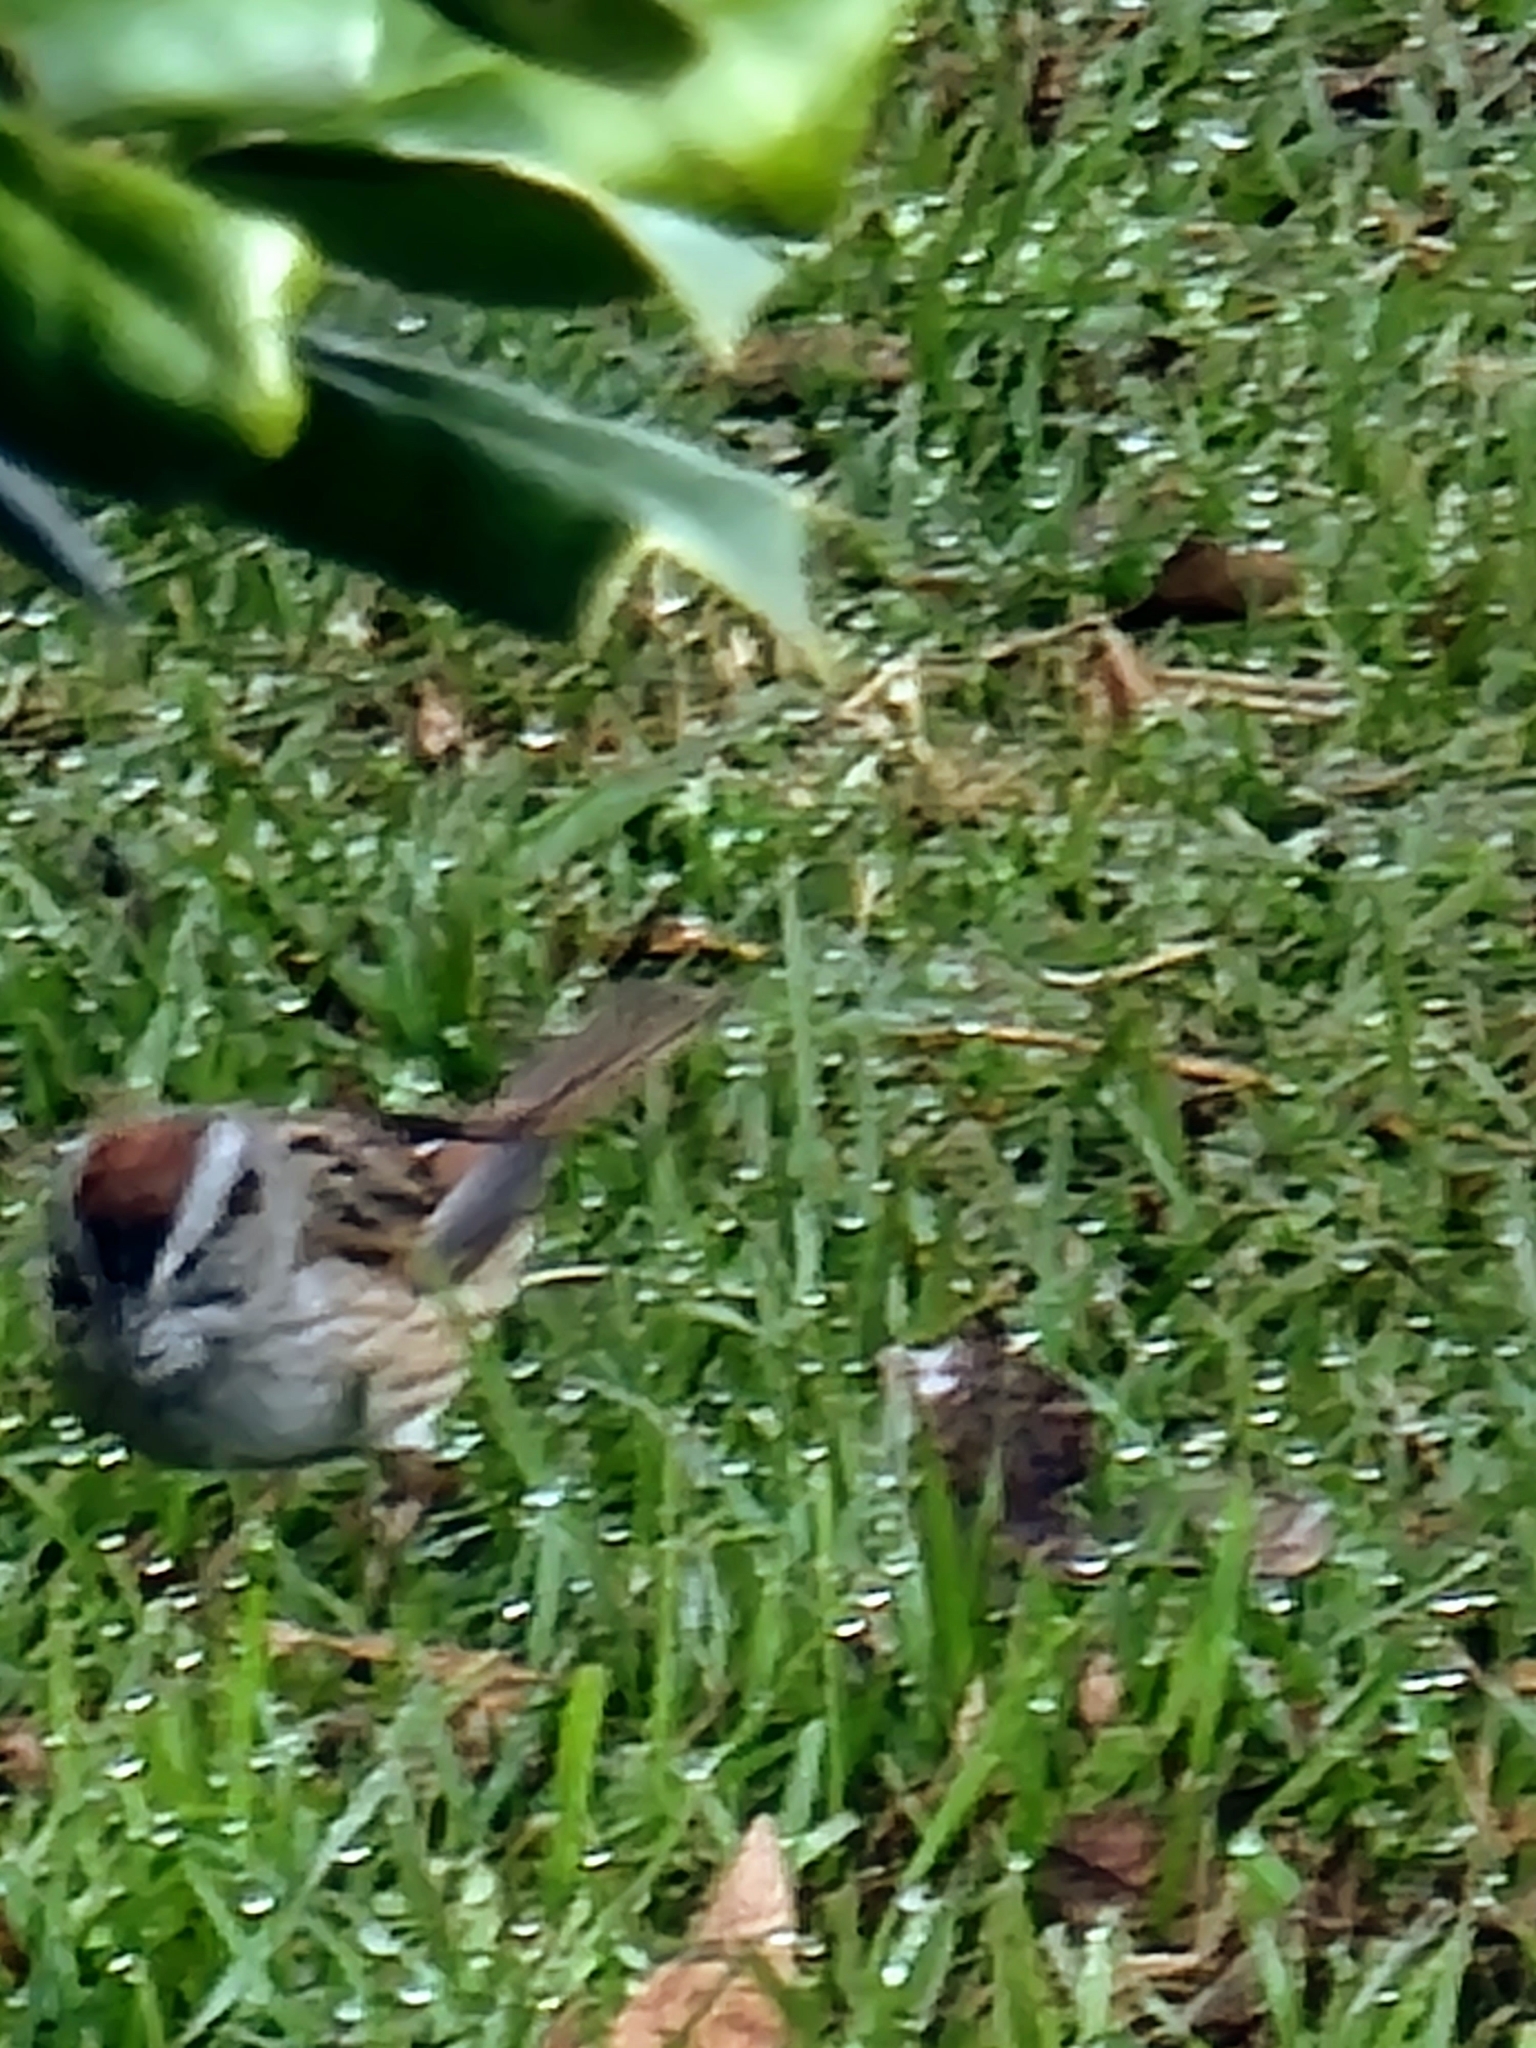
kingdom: Animalia
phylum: Chordata
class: Aves
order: Passeriformes
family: Passerellidae
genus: Melospiza
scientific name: Melospiza georgiana
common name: Swamp sparrow
